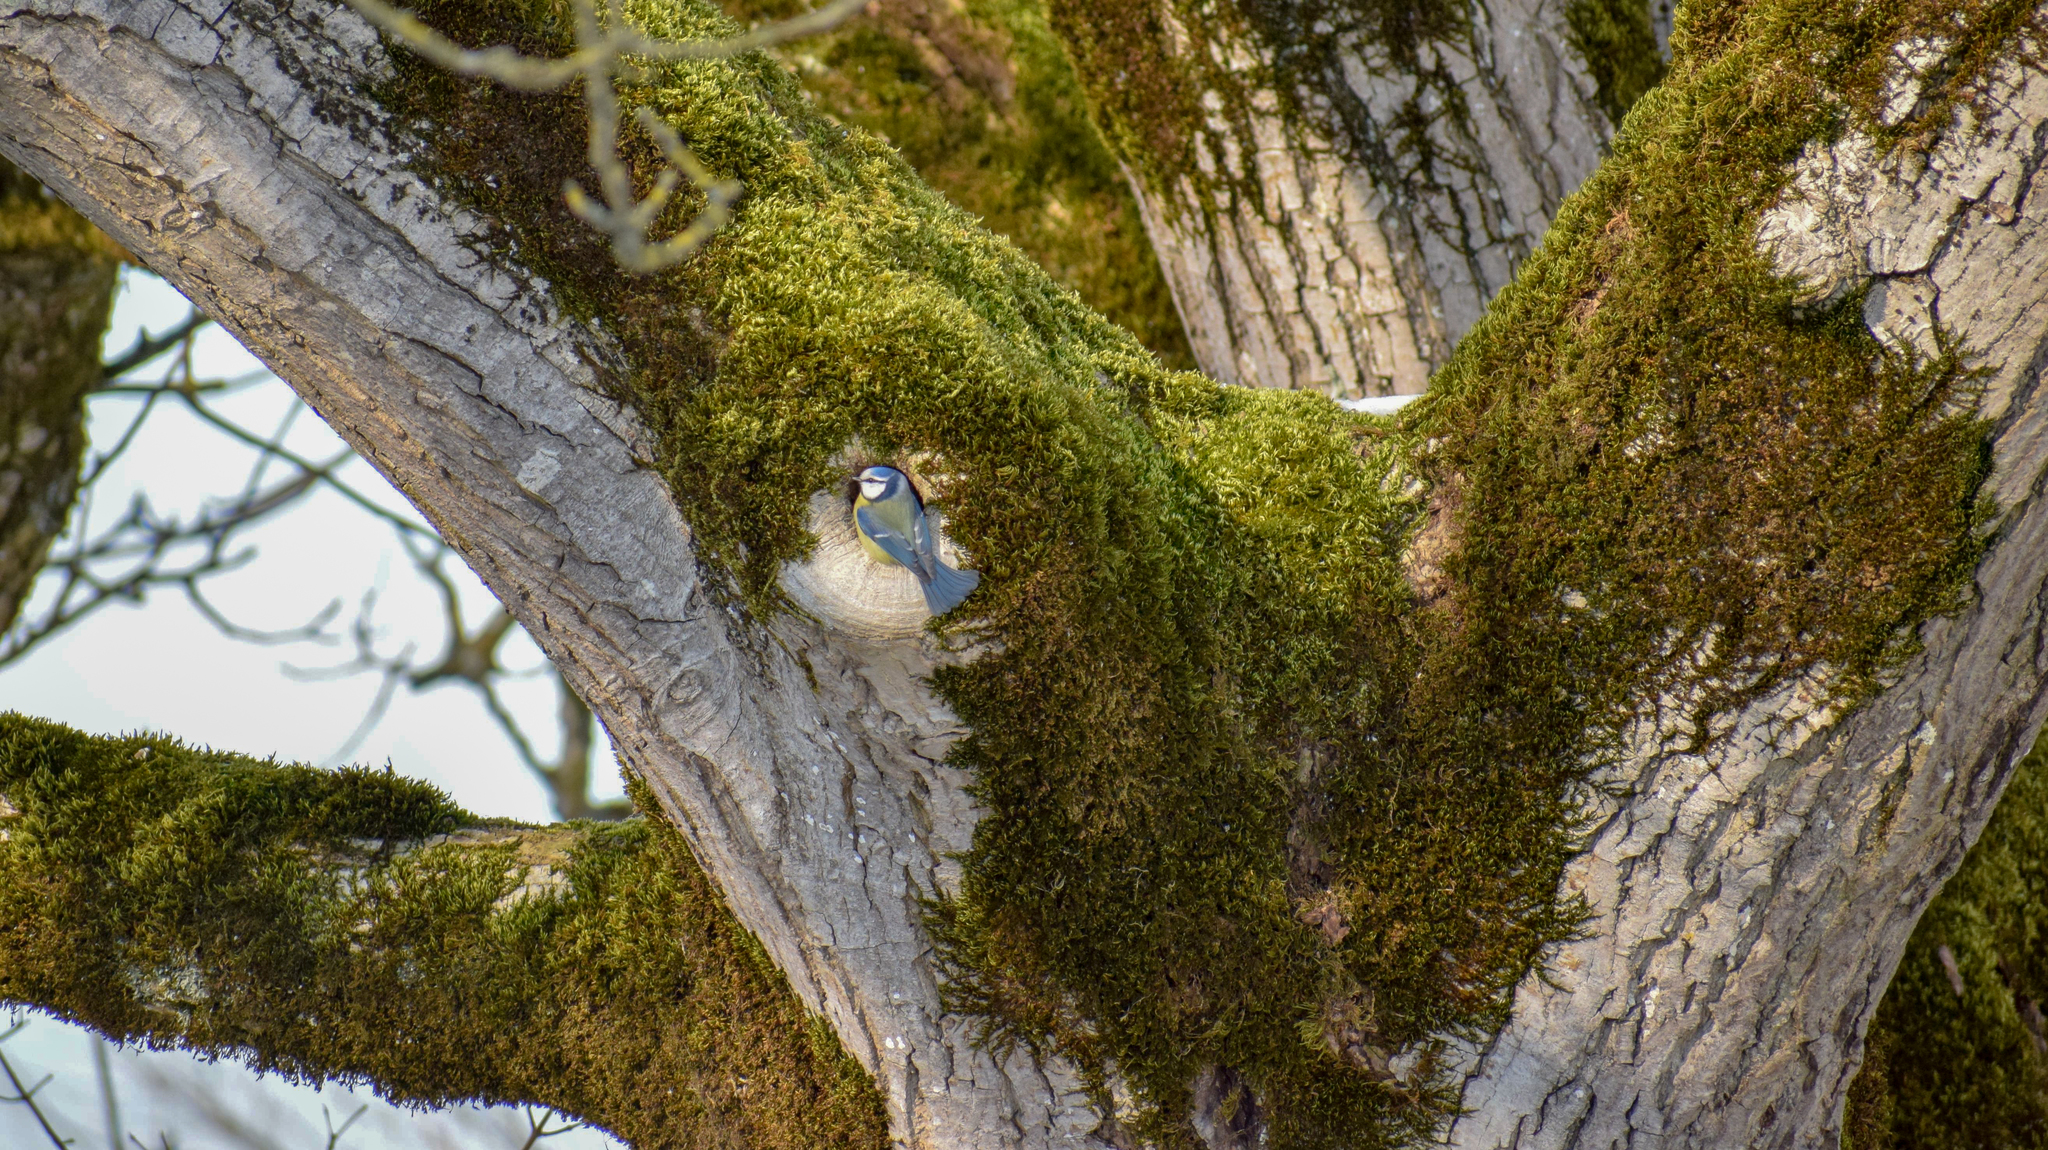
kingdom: Animalia
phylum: Chordata
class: Aves
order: Passeriformes
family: Paridae
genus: Cyanistes
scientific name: Cyanistes caeruleus
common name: Eurasian blue tit
